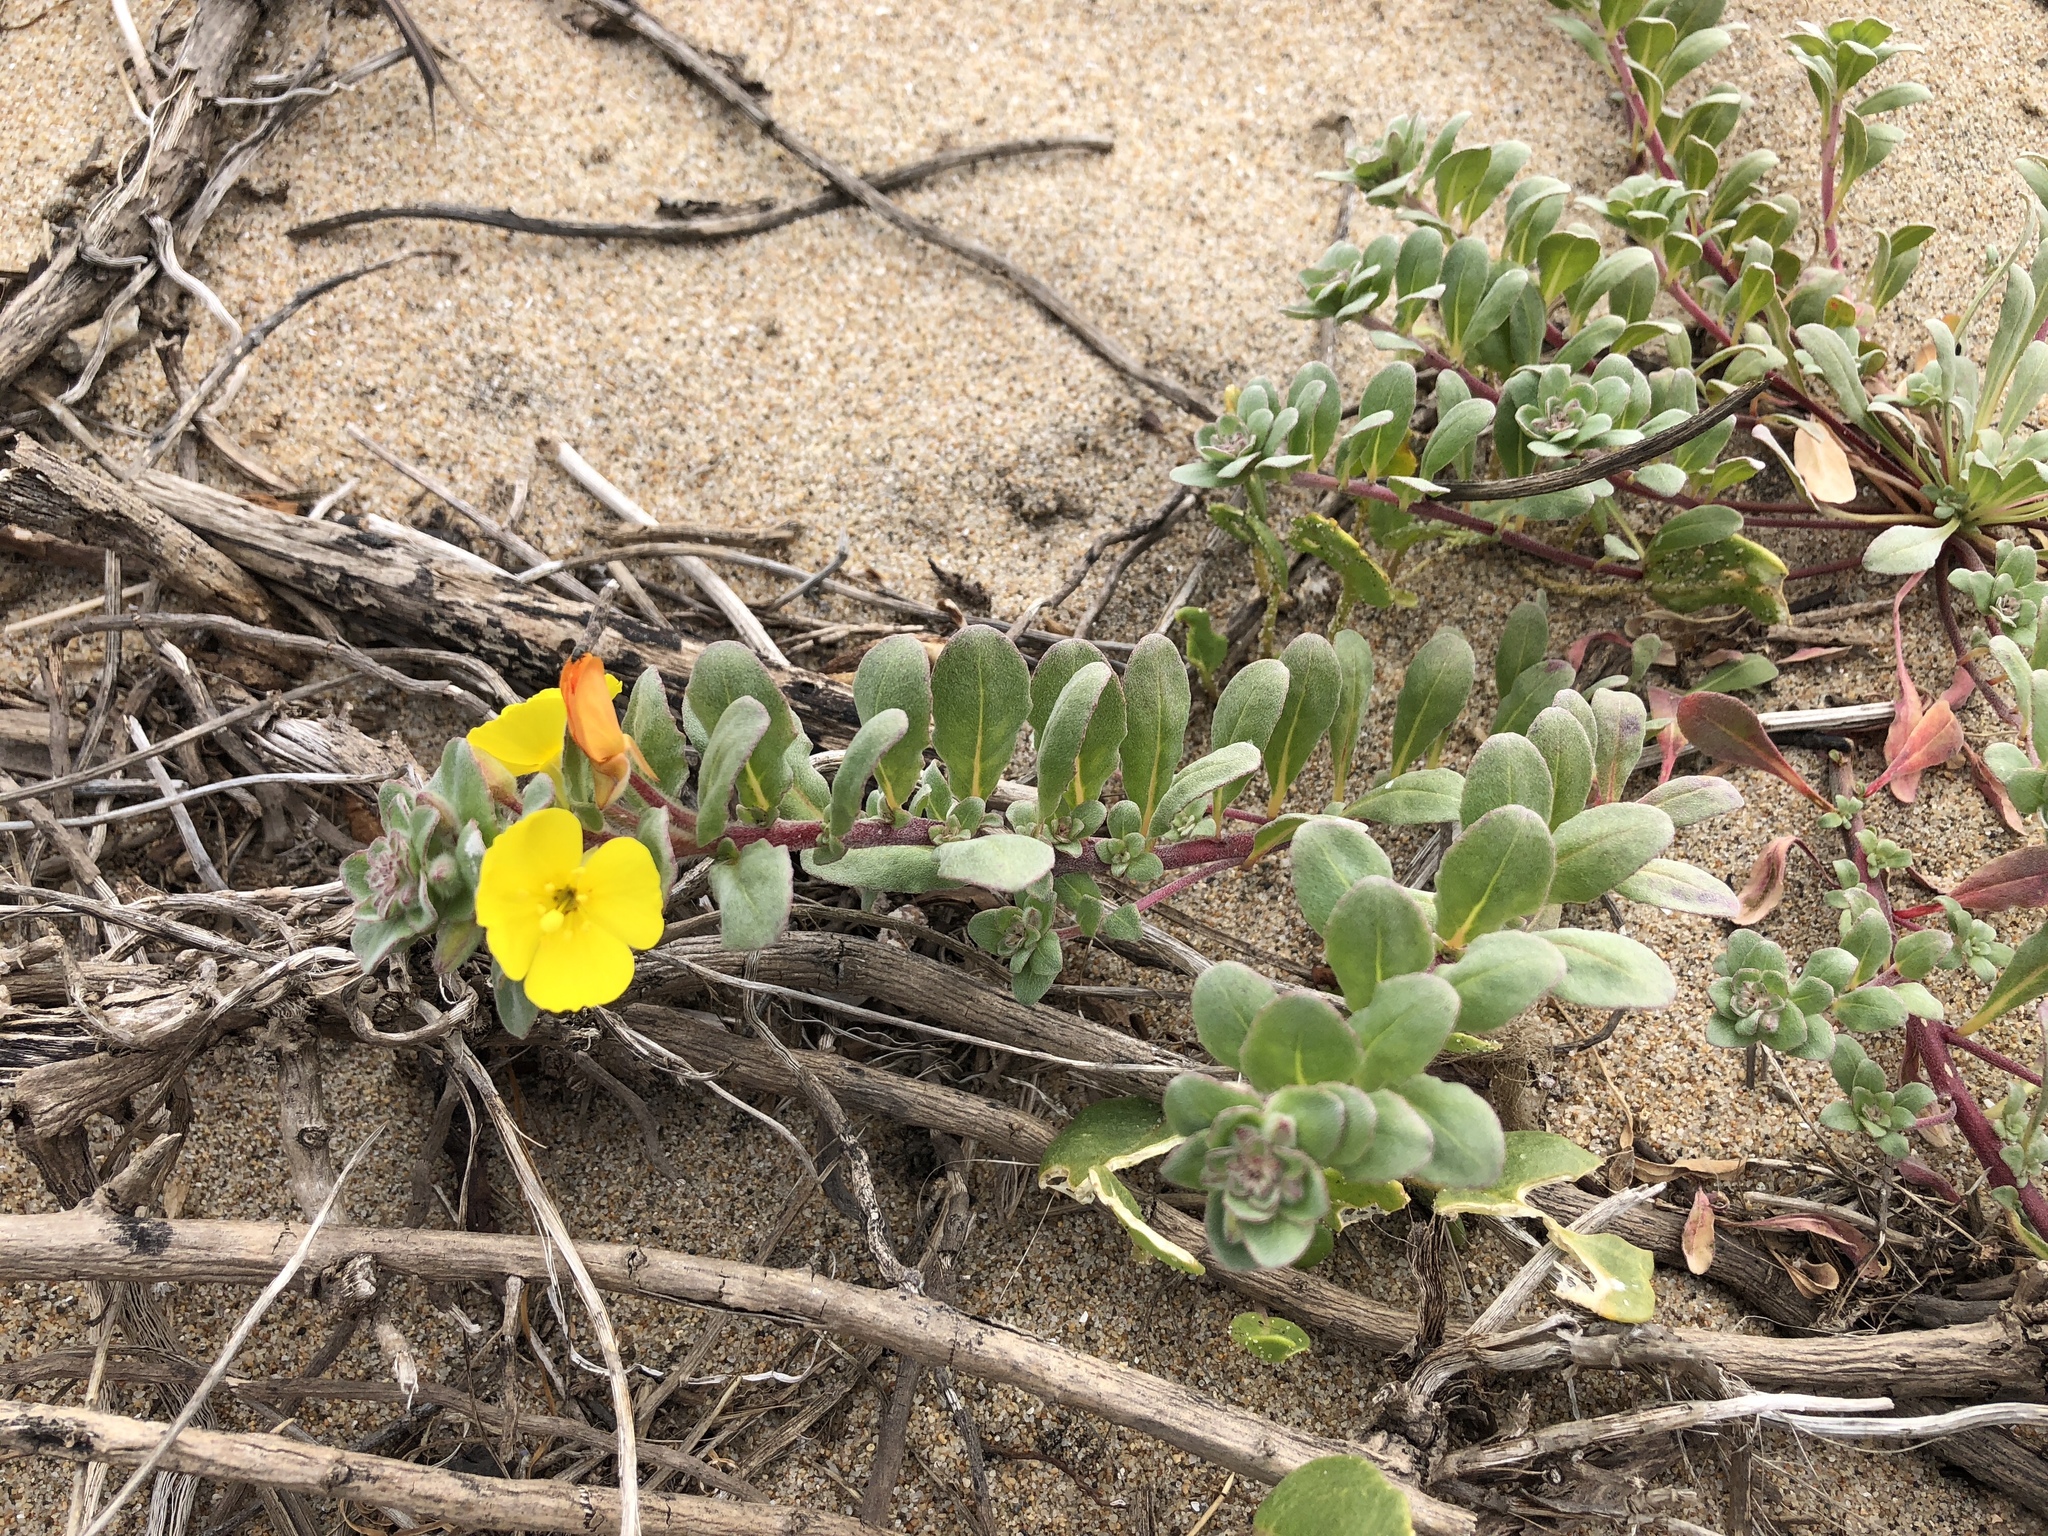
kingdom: Plantae
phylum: Tracheophyta
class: Magnoliopsida
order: Myrtales
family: Onagraceae
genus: Camissoniopsis
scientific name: Camissoniopsis cheiranthifolia
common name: Beach suncup
